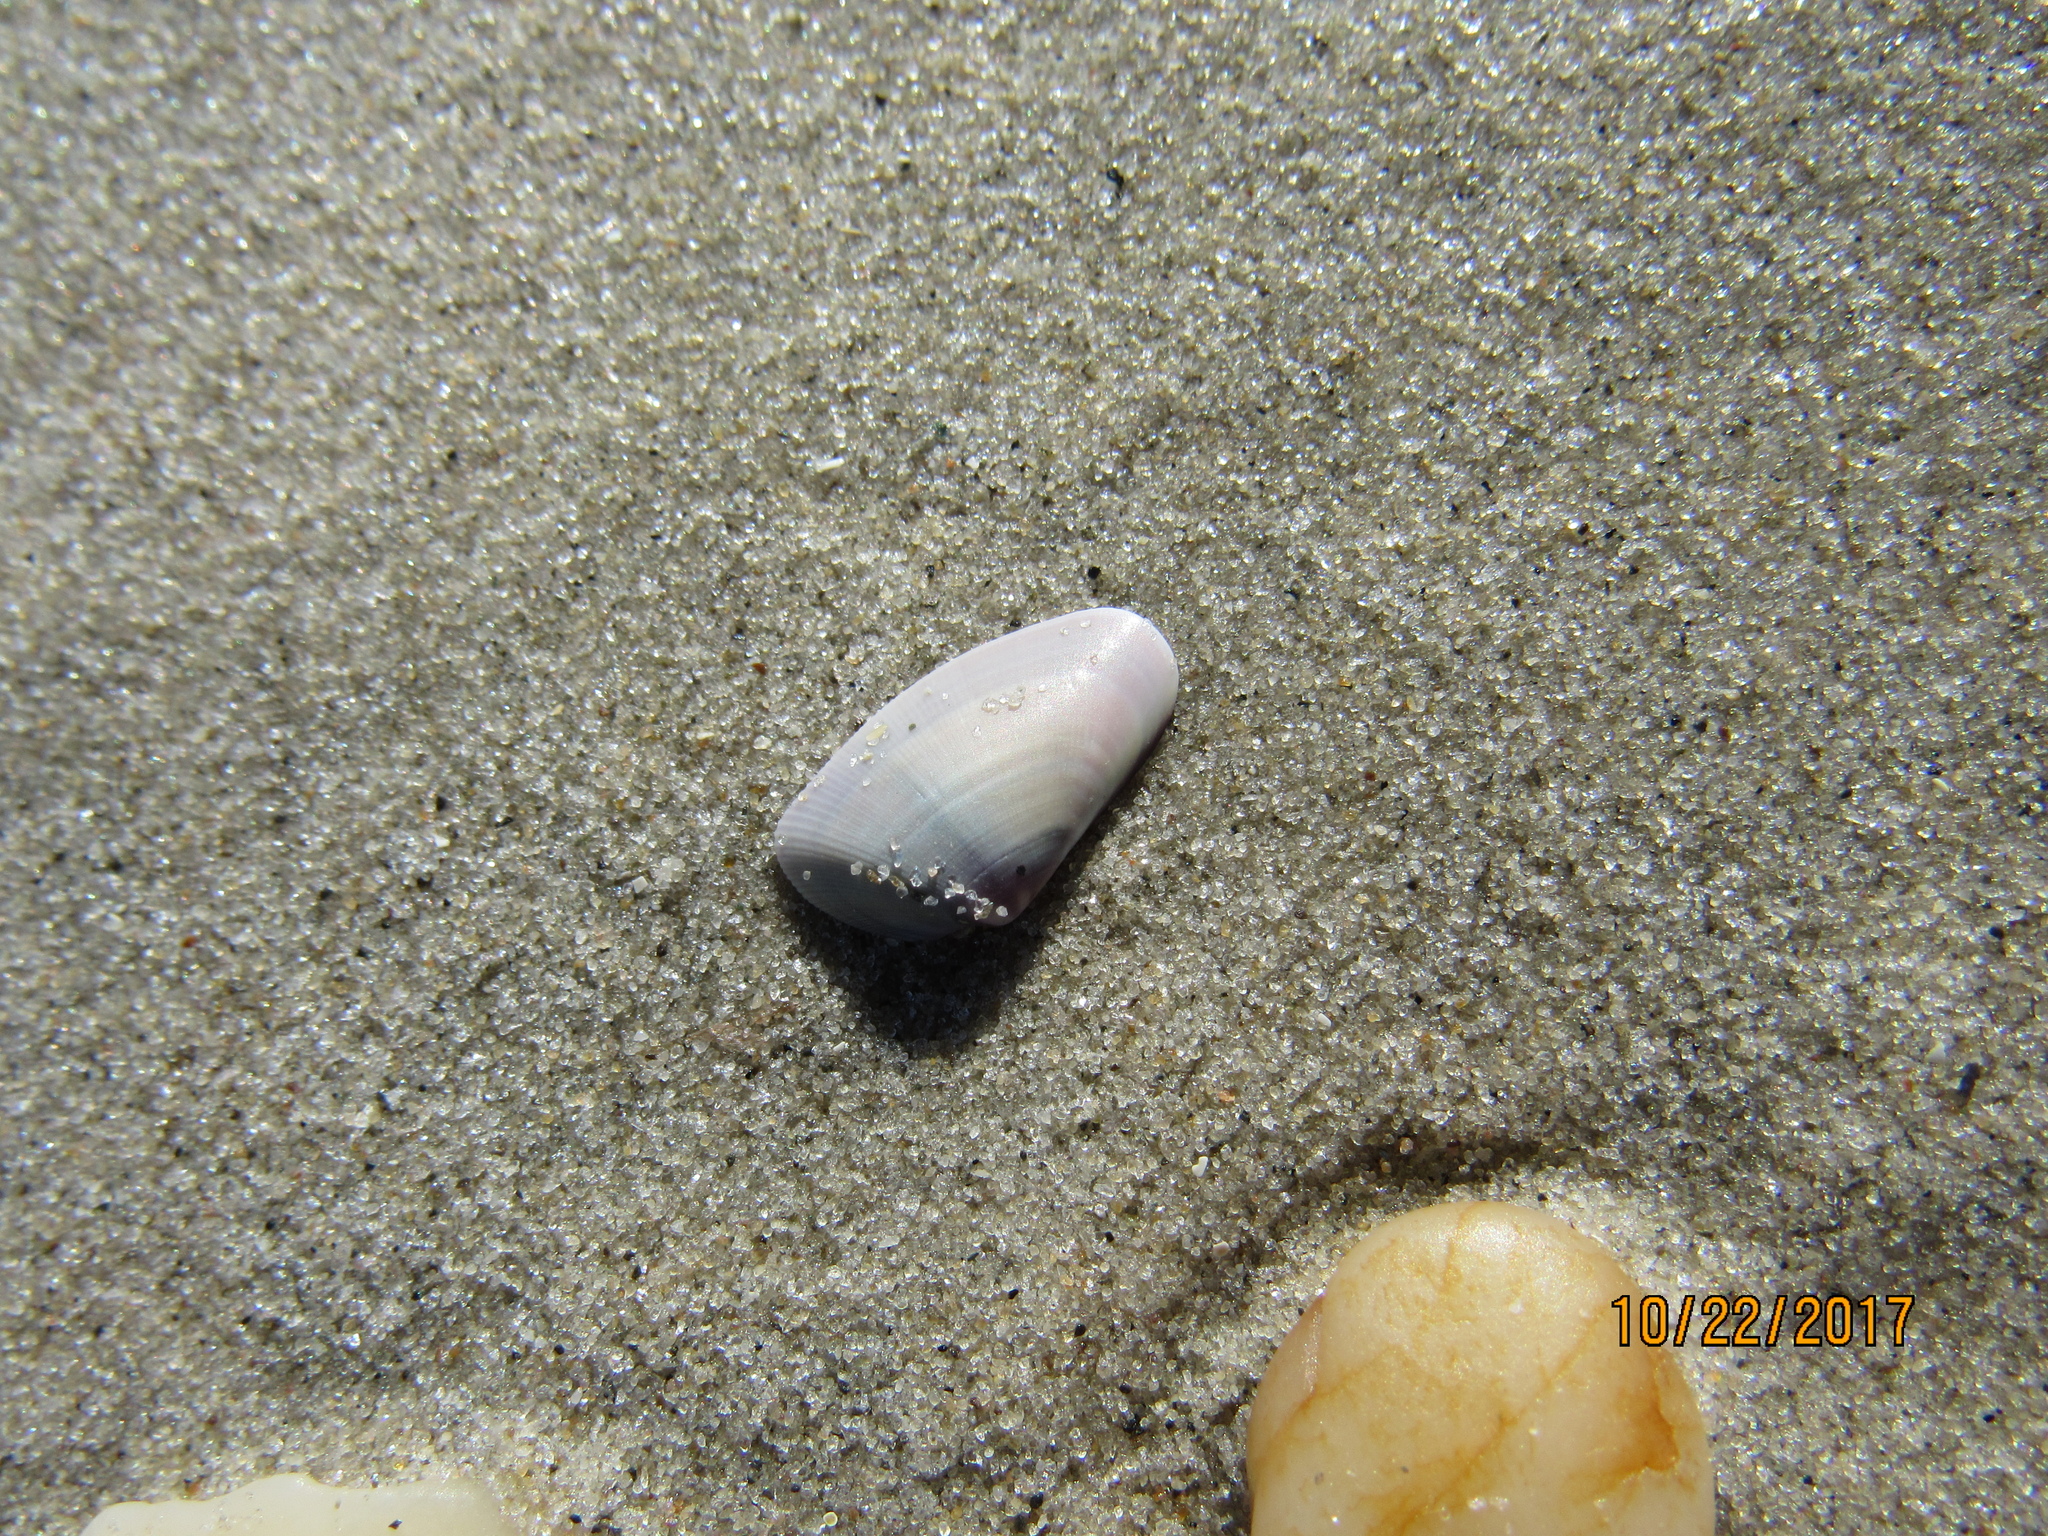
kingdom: Animalia
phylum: Mollusca
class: Bivalvia
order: Cardiida
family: Donacidae
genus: Donax
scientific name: Donax variabilis
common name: Butterfly shell
